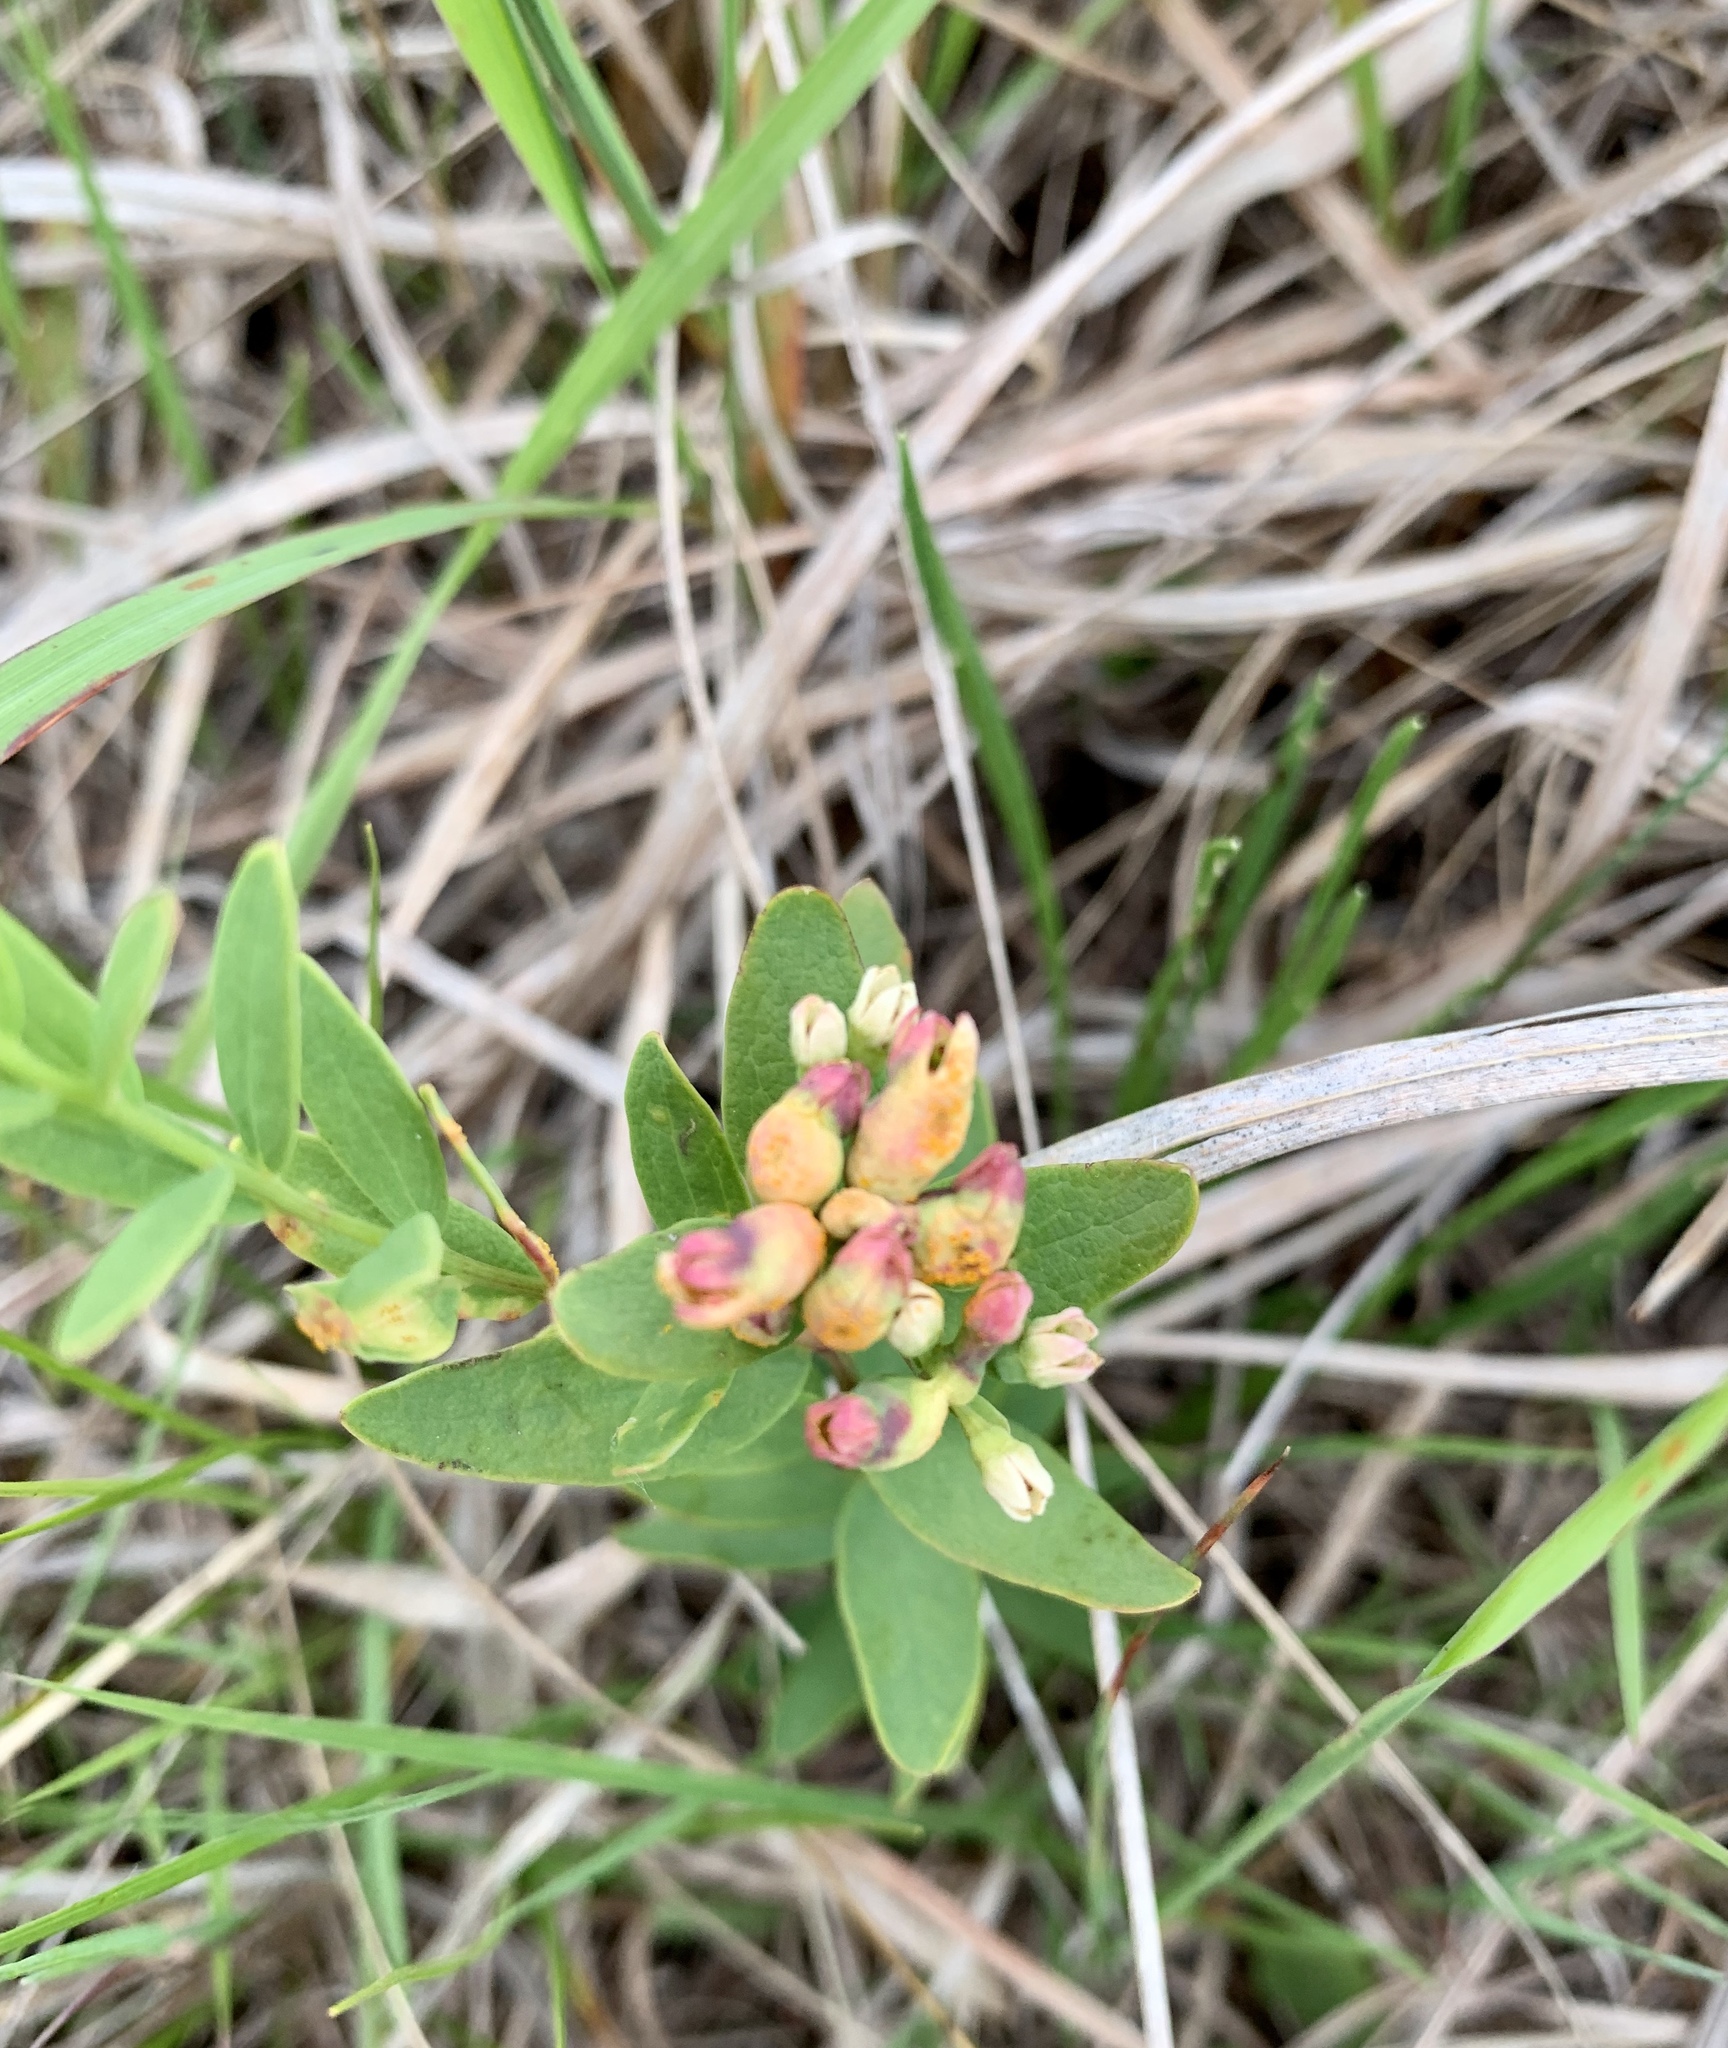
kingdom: Plantae
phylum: Tracheophyta
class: Magnoliopsida
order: Santalales
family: Comandraceae
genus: Comandra
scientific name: Comandra umbellata
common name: Bastard toadflax
